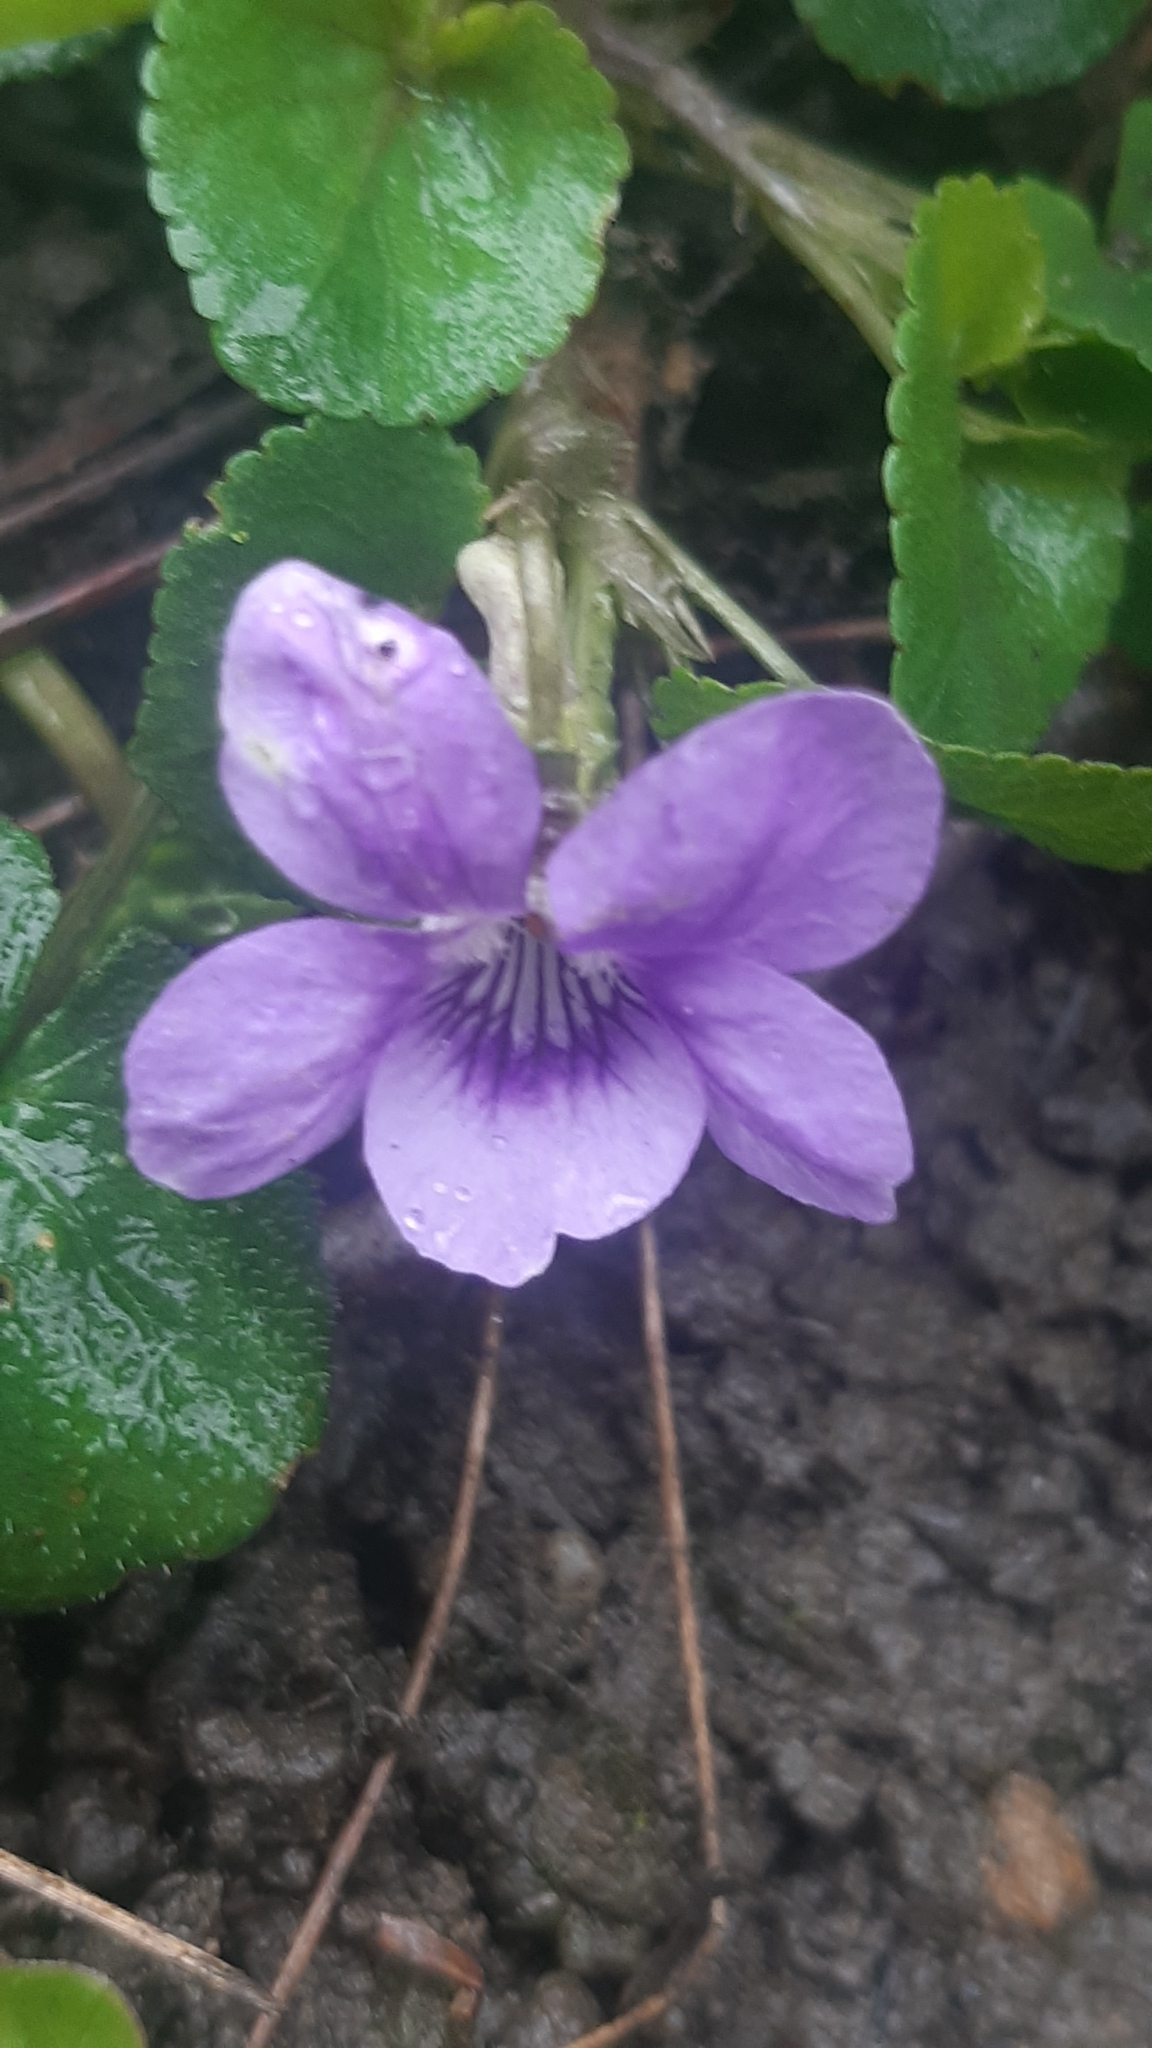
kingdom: Plantae
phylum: Tracheophyta
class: Magnoliopsida
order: Malpighiales
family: Violaceae
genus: Viola
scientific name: Viola riviniana
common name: Common dog-violet
